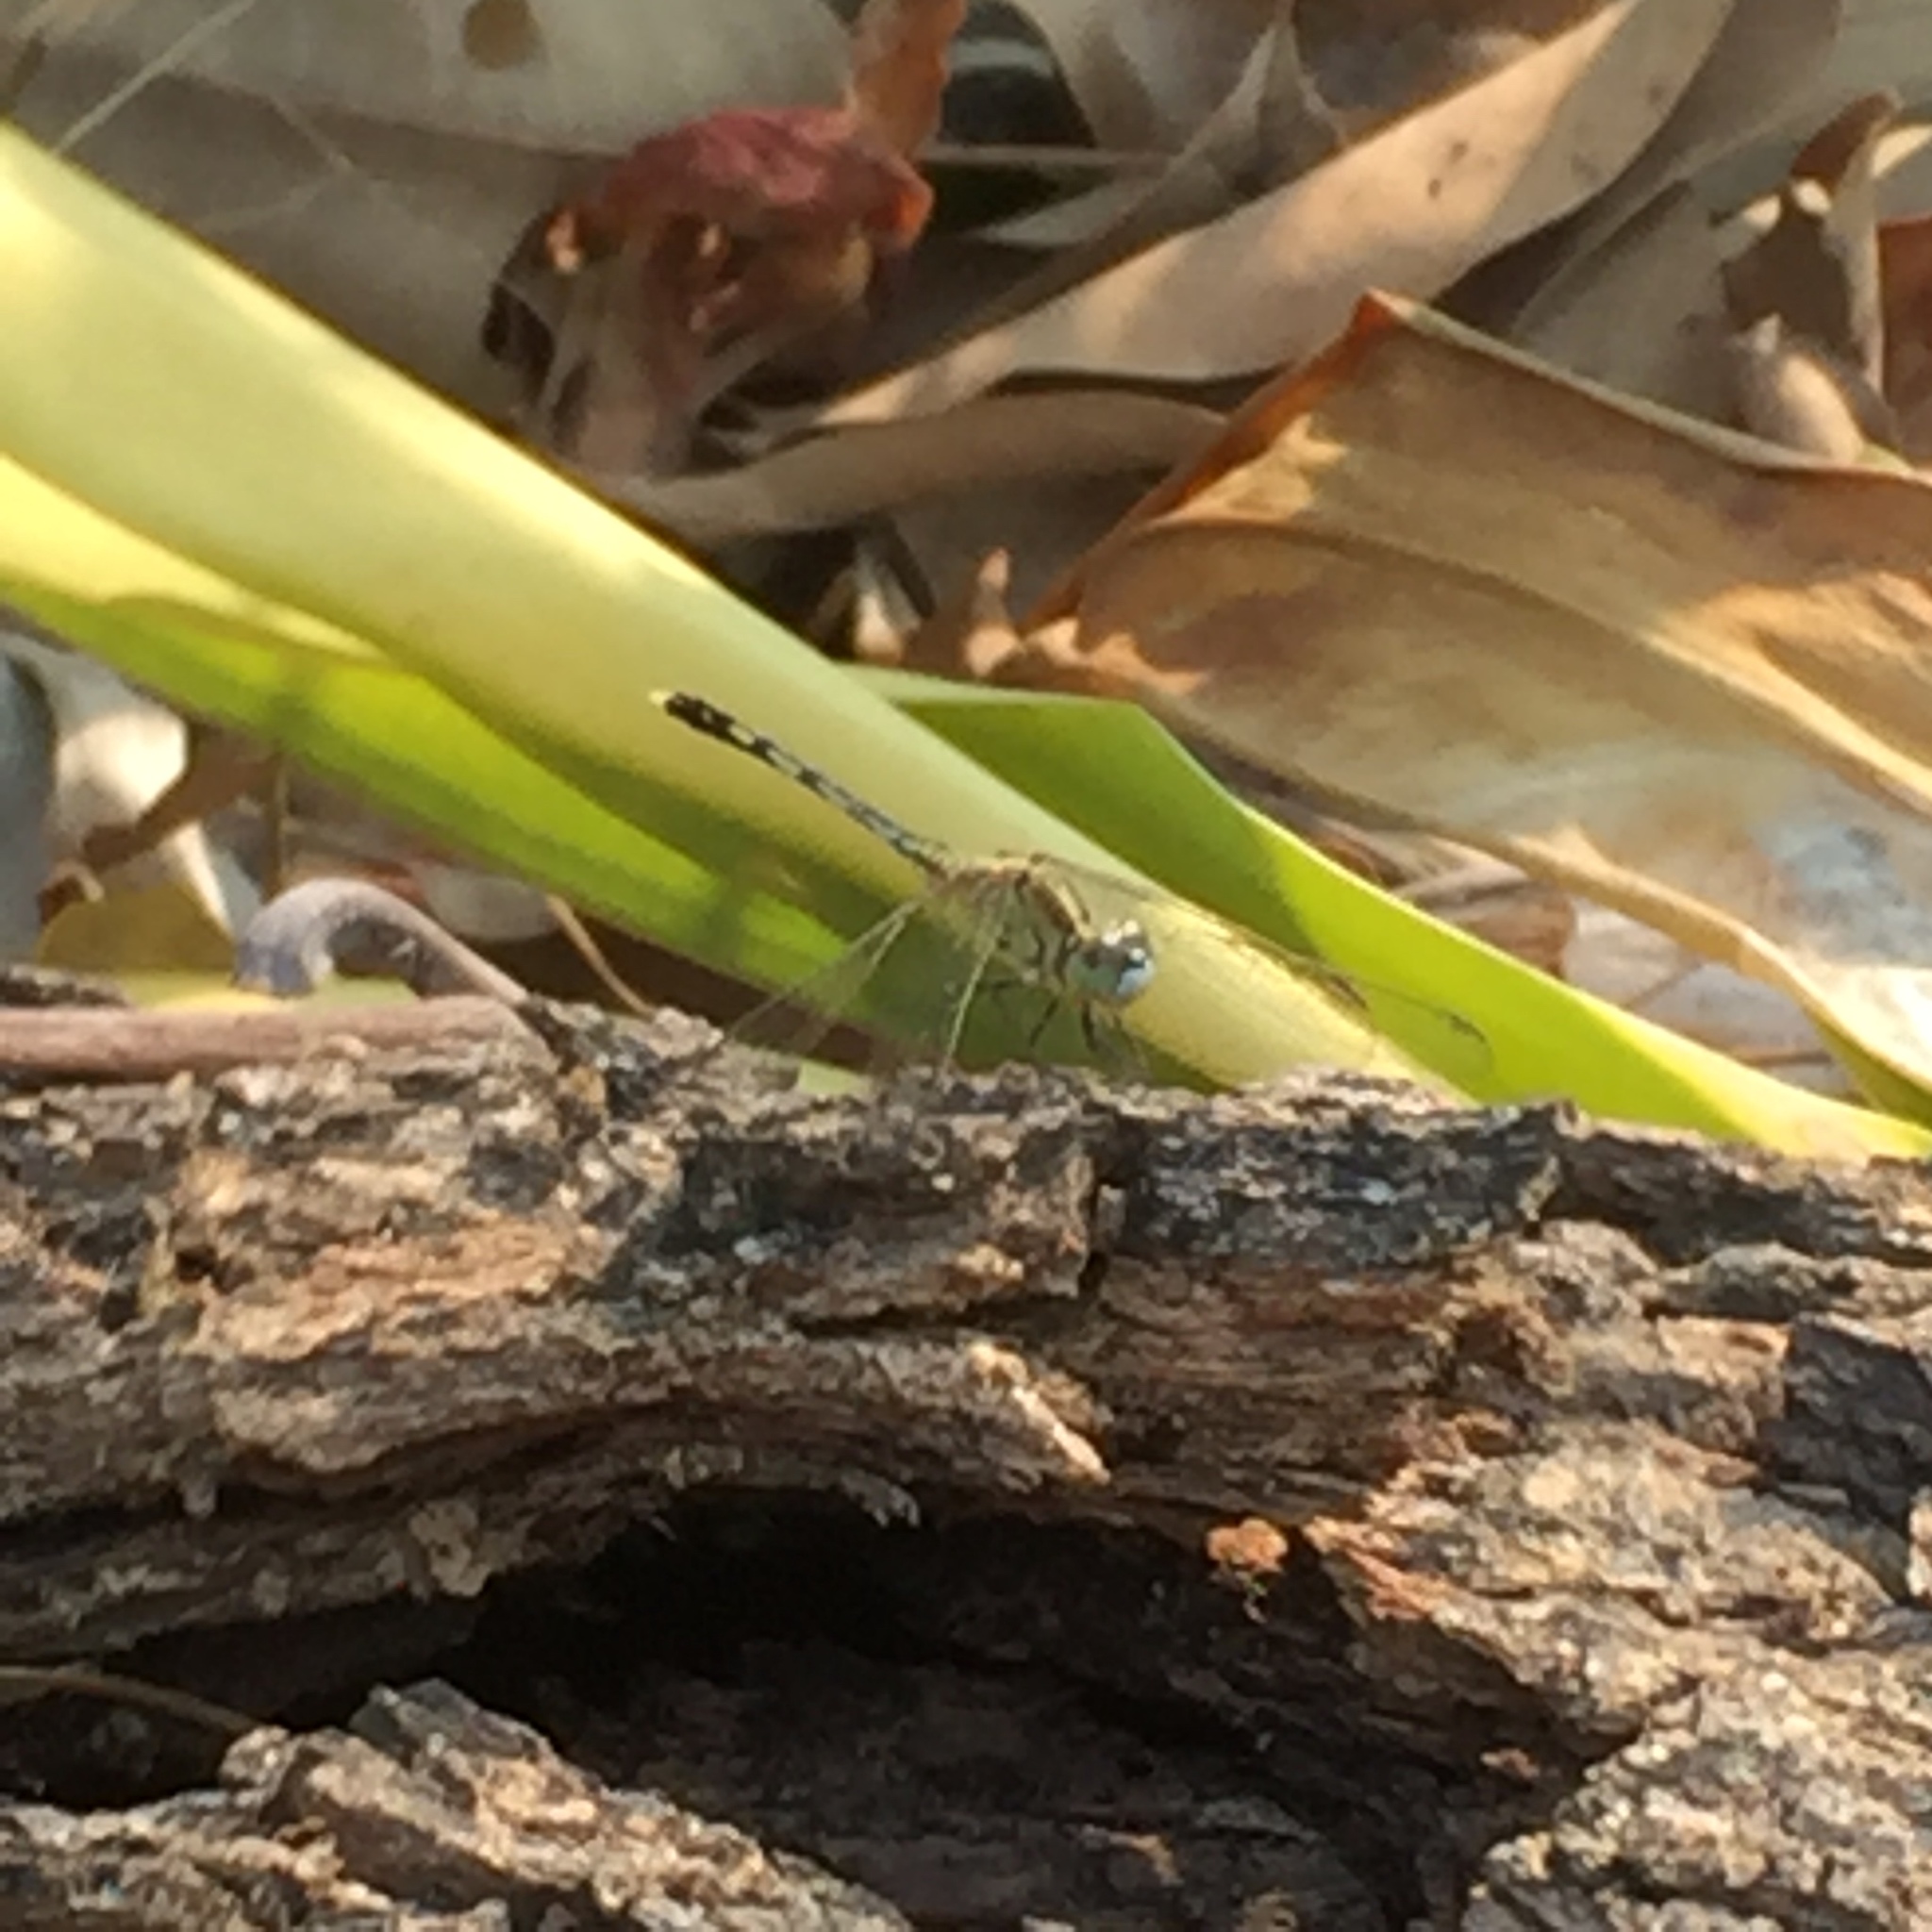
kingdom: Animalia
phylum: Arthropoda
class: Insecta
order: Odonata
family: Libellulidae
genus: Diplacodes
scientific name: Diplacodes trivialis
